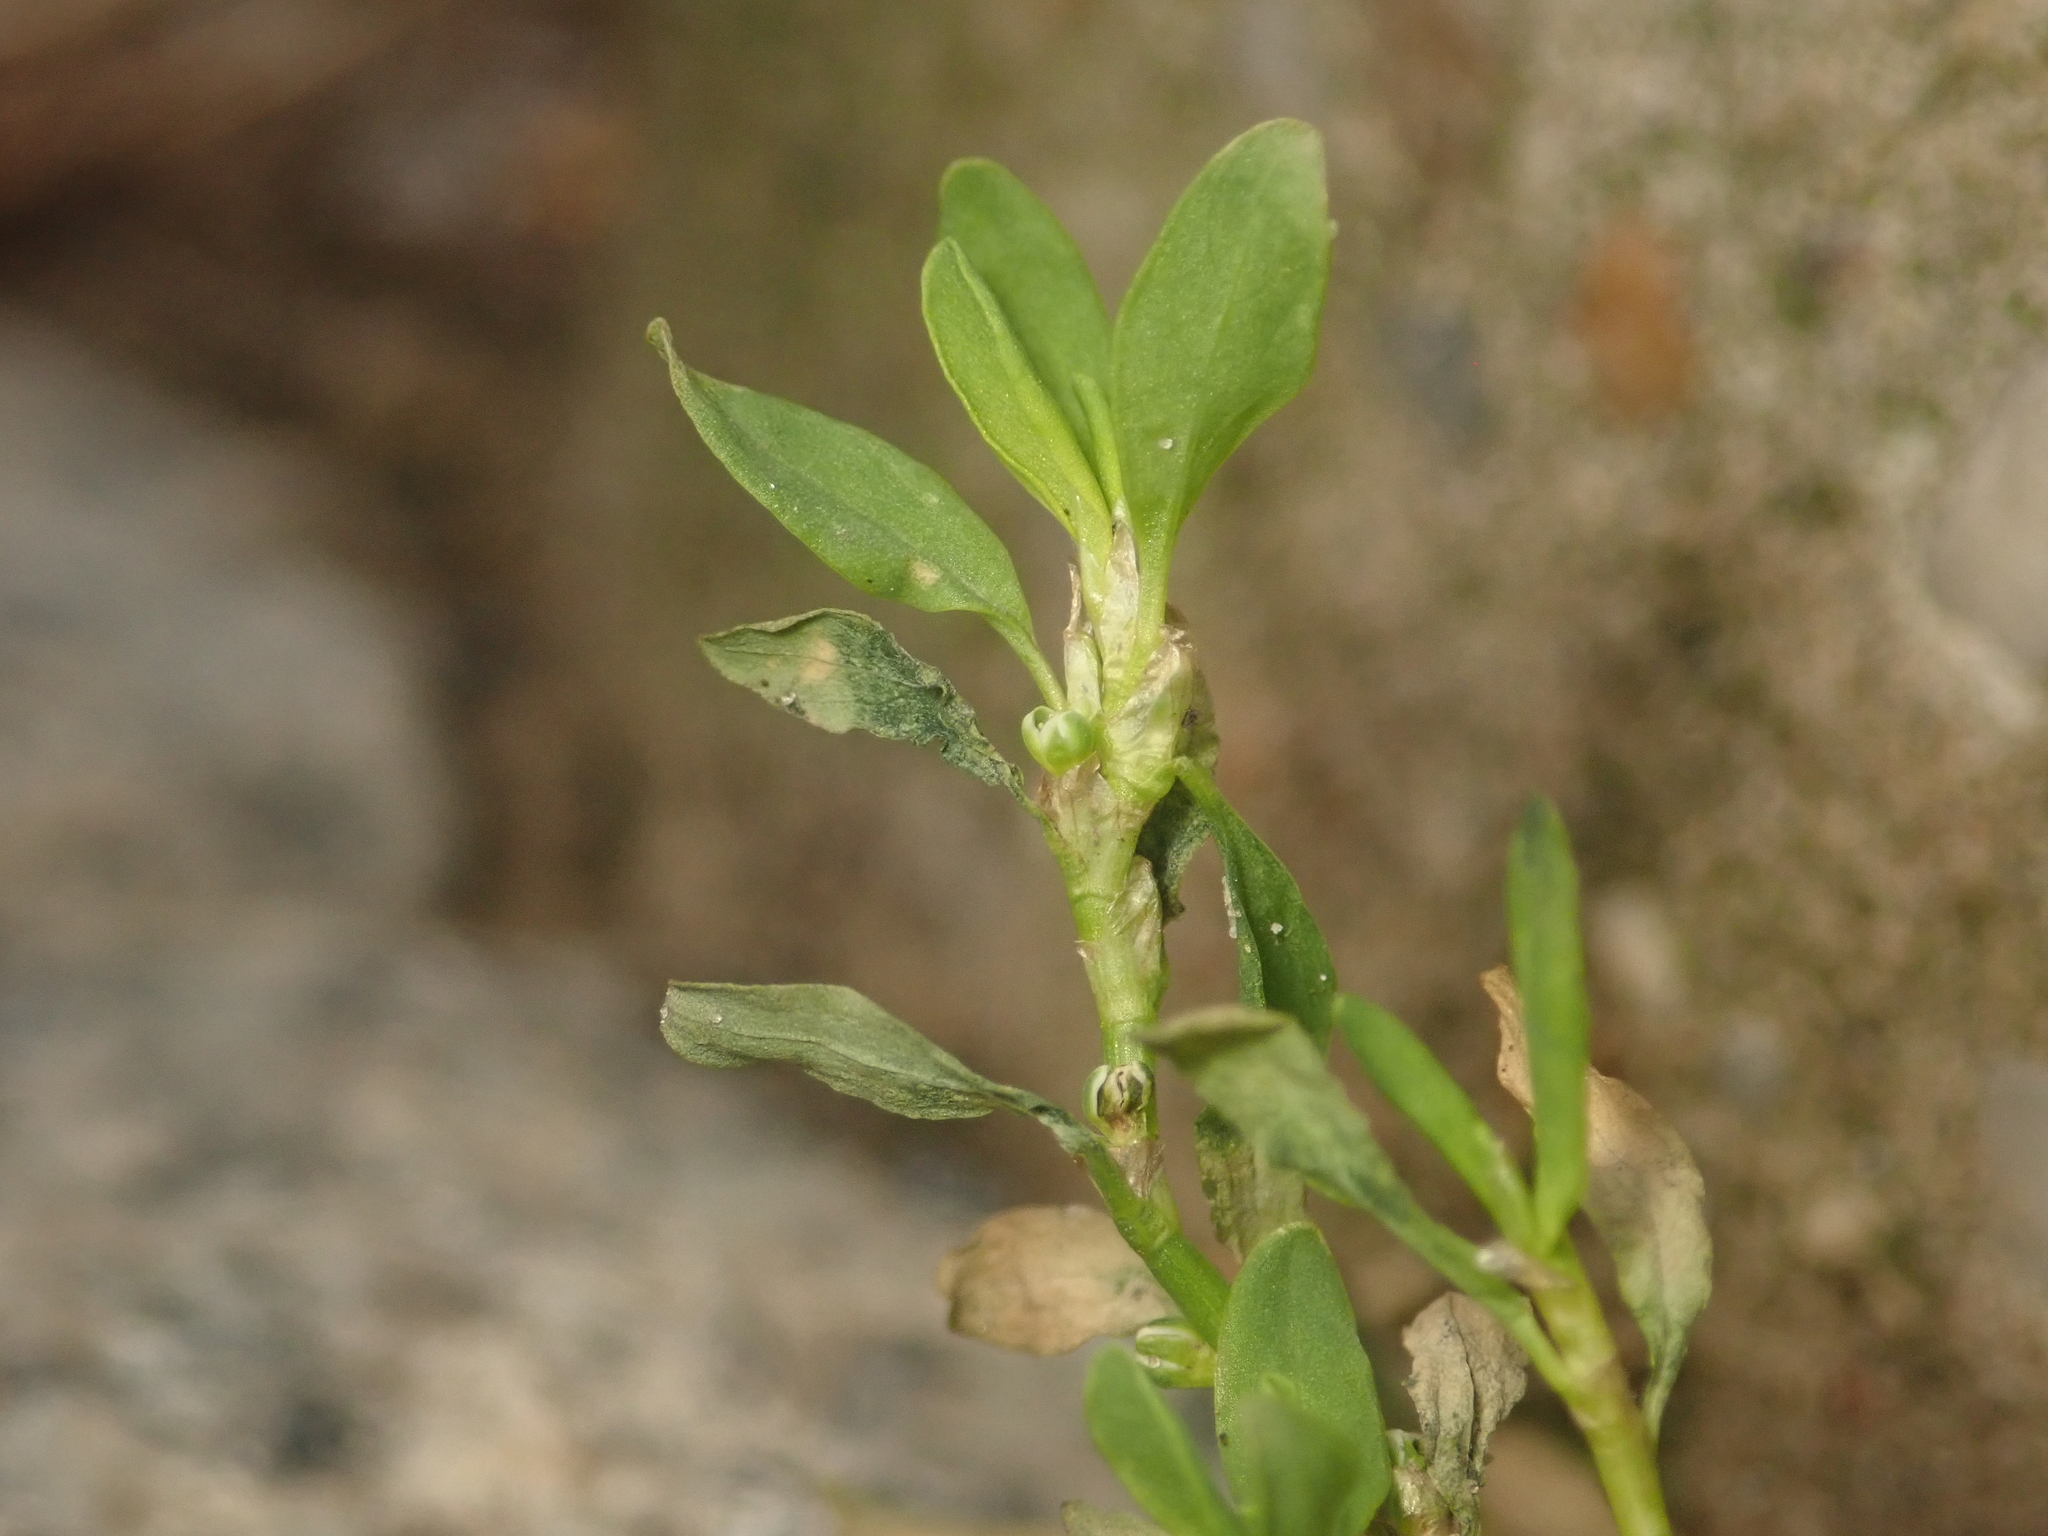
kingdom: Plantae
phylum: Tracheophyta
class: Magnoliopsida
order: Caryophyllales
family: Polygonaceae
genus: Polygonum
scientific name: Polygonum aviculare
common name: Prostrate knotweed
